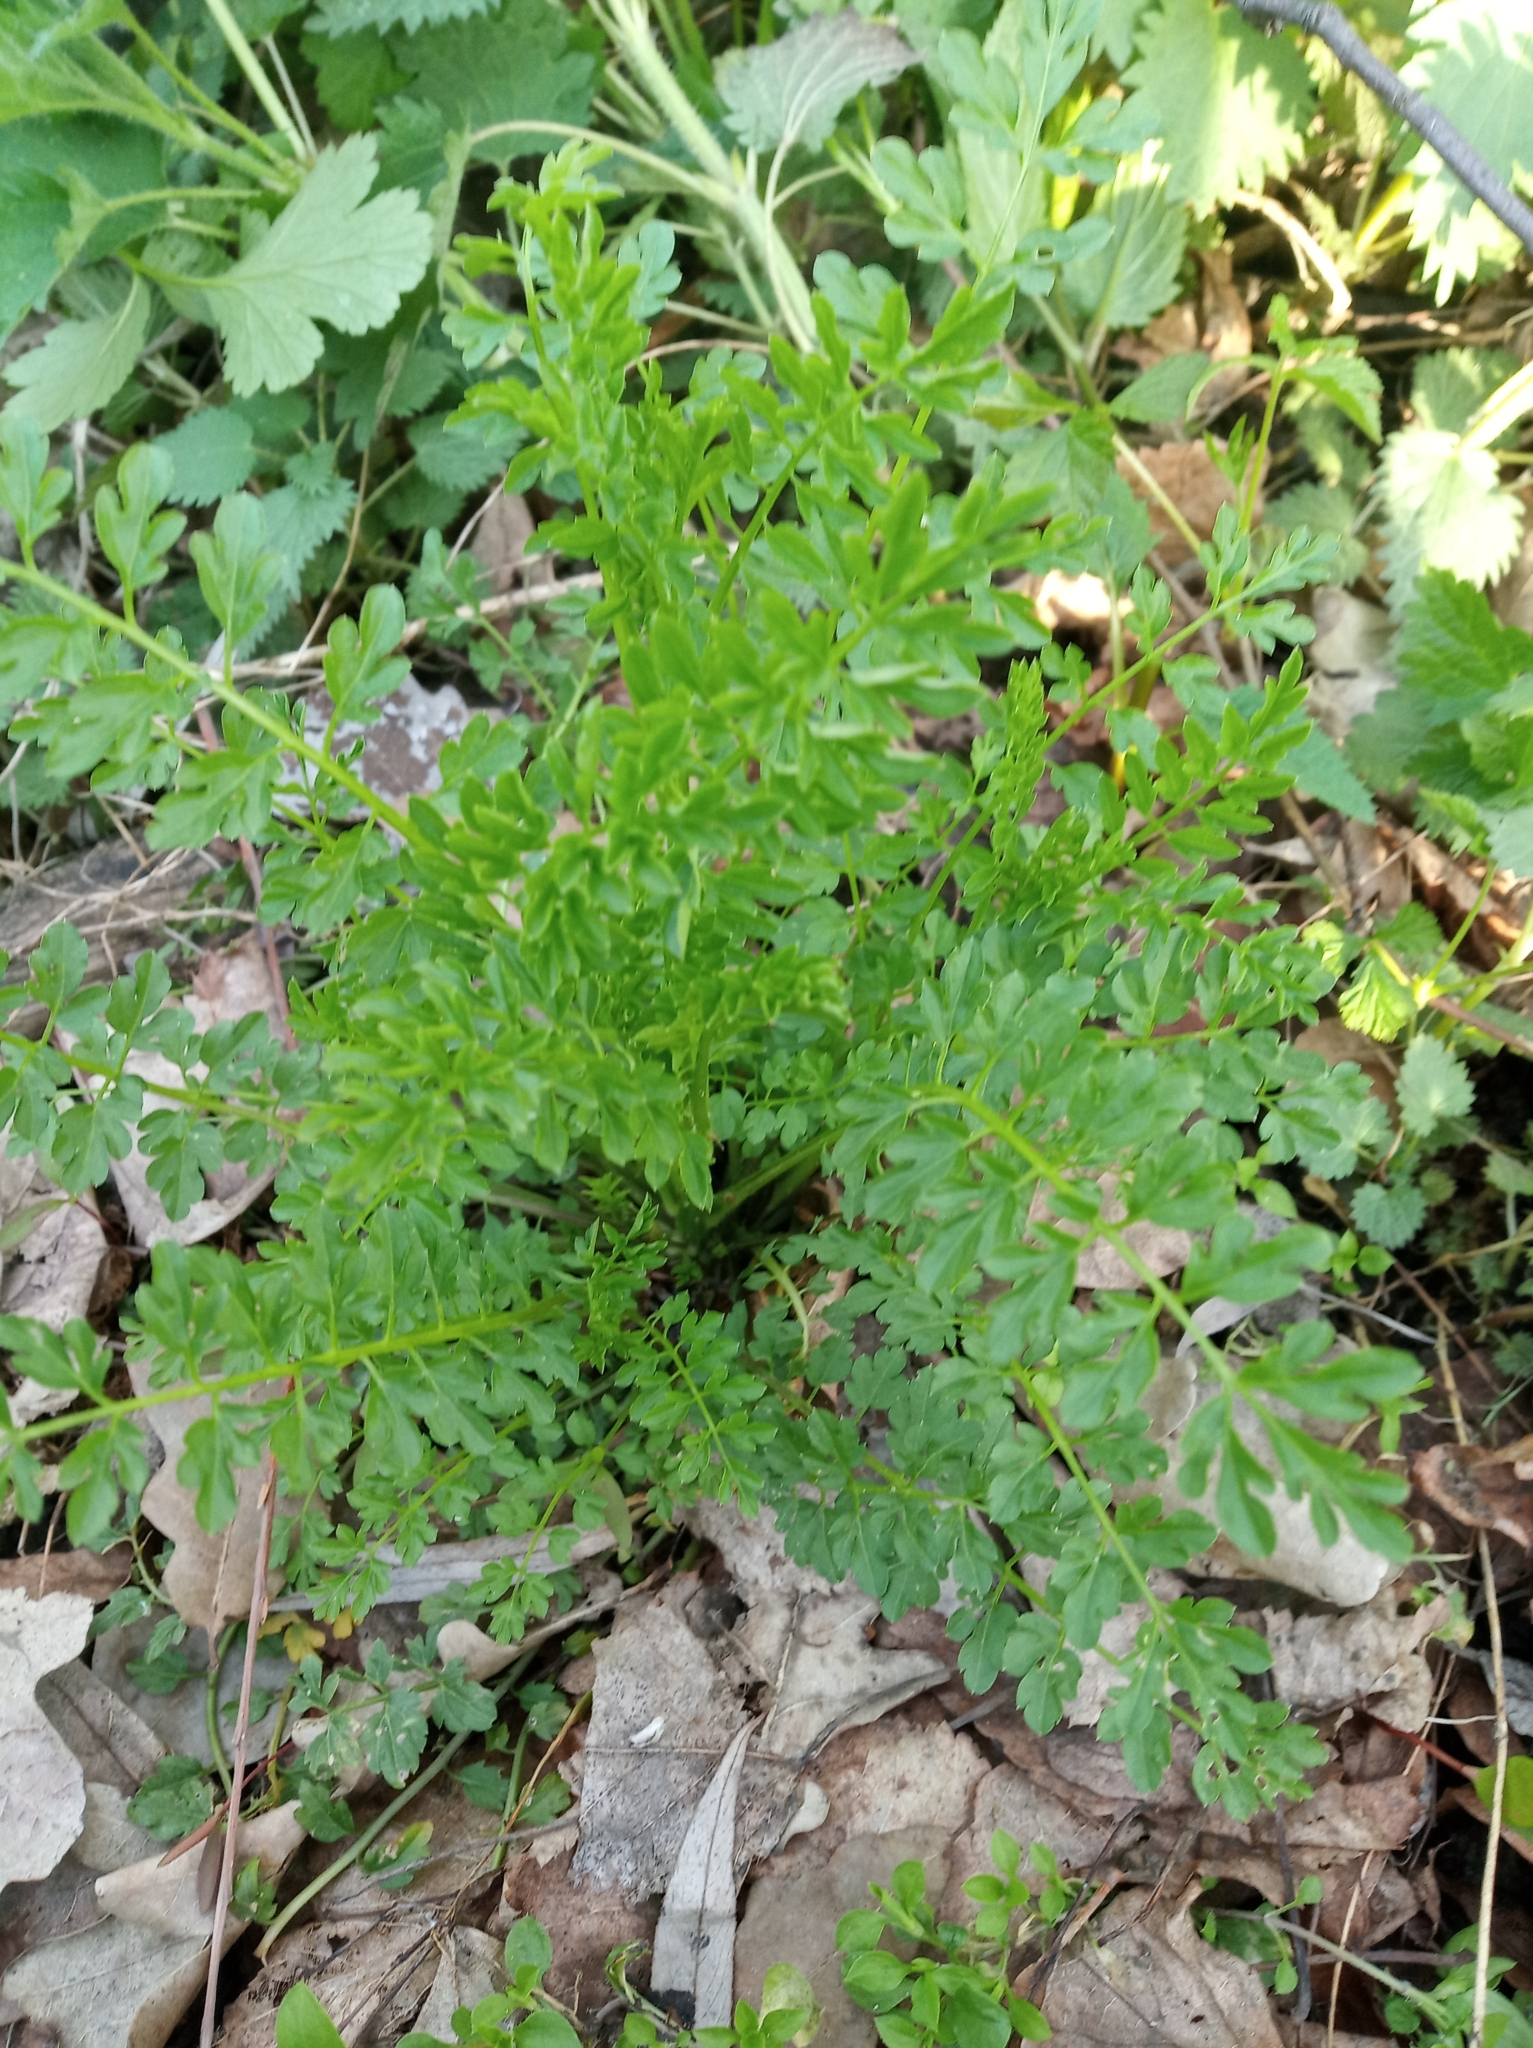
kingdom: Plantae
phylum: Tracheophyta
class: Magnoliopsida
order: Asterales
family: Asteraceae
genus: Tripleurospermum
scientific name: Tripleurospermum inodorum
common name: Scentless mayweed
